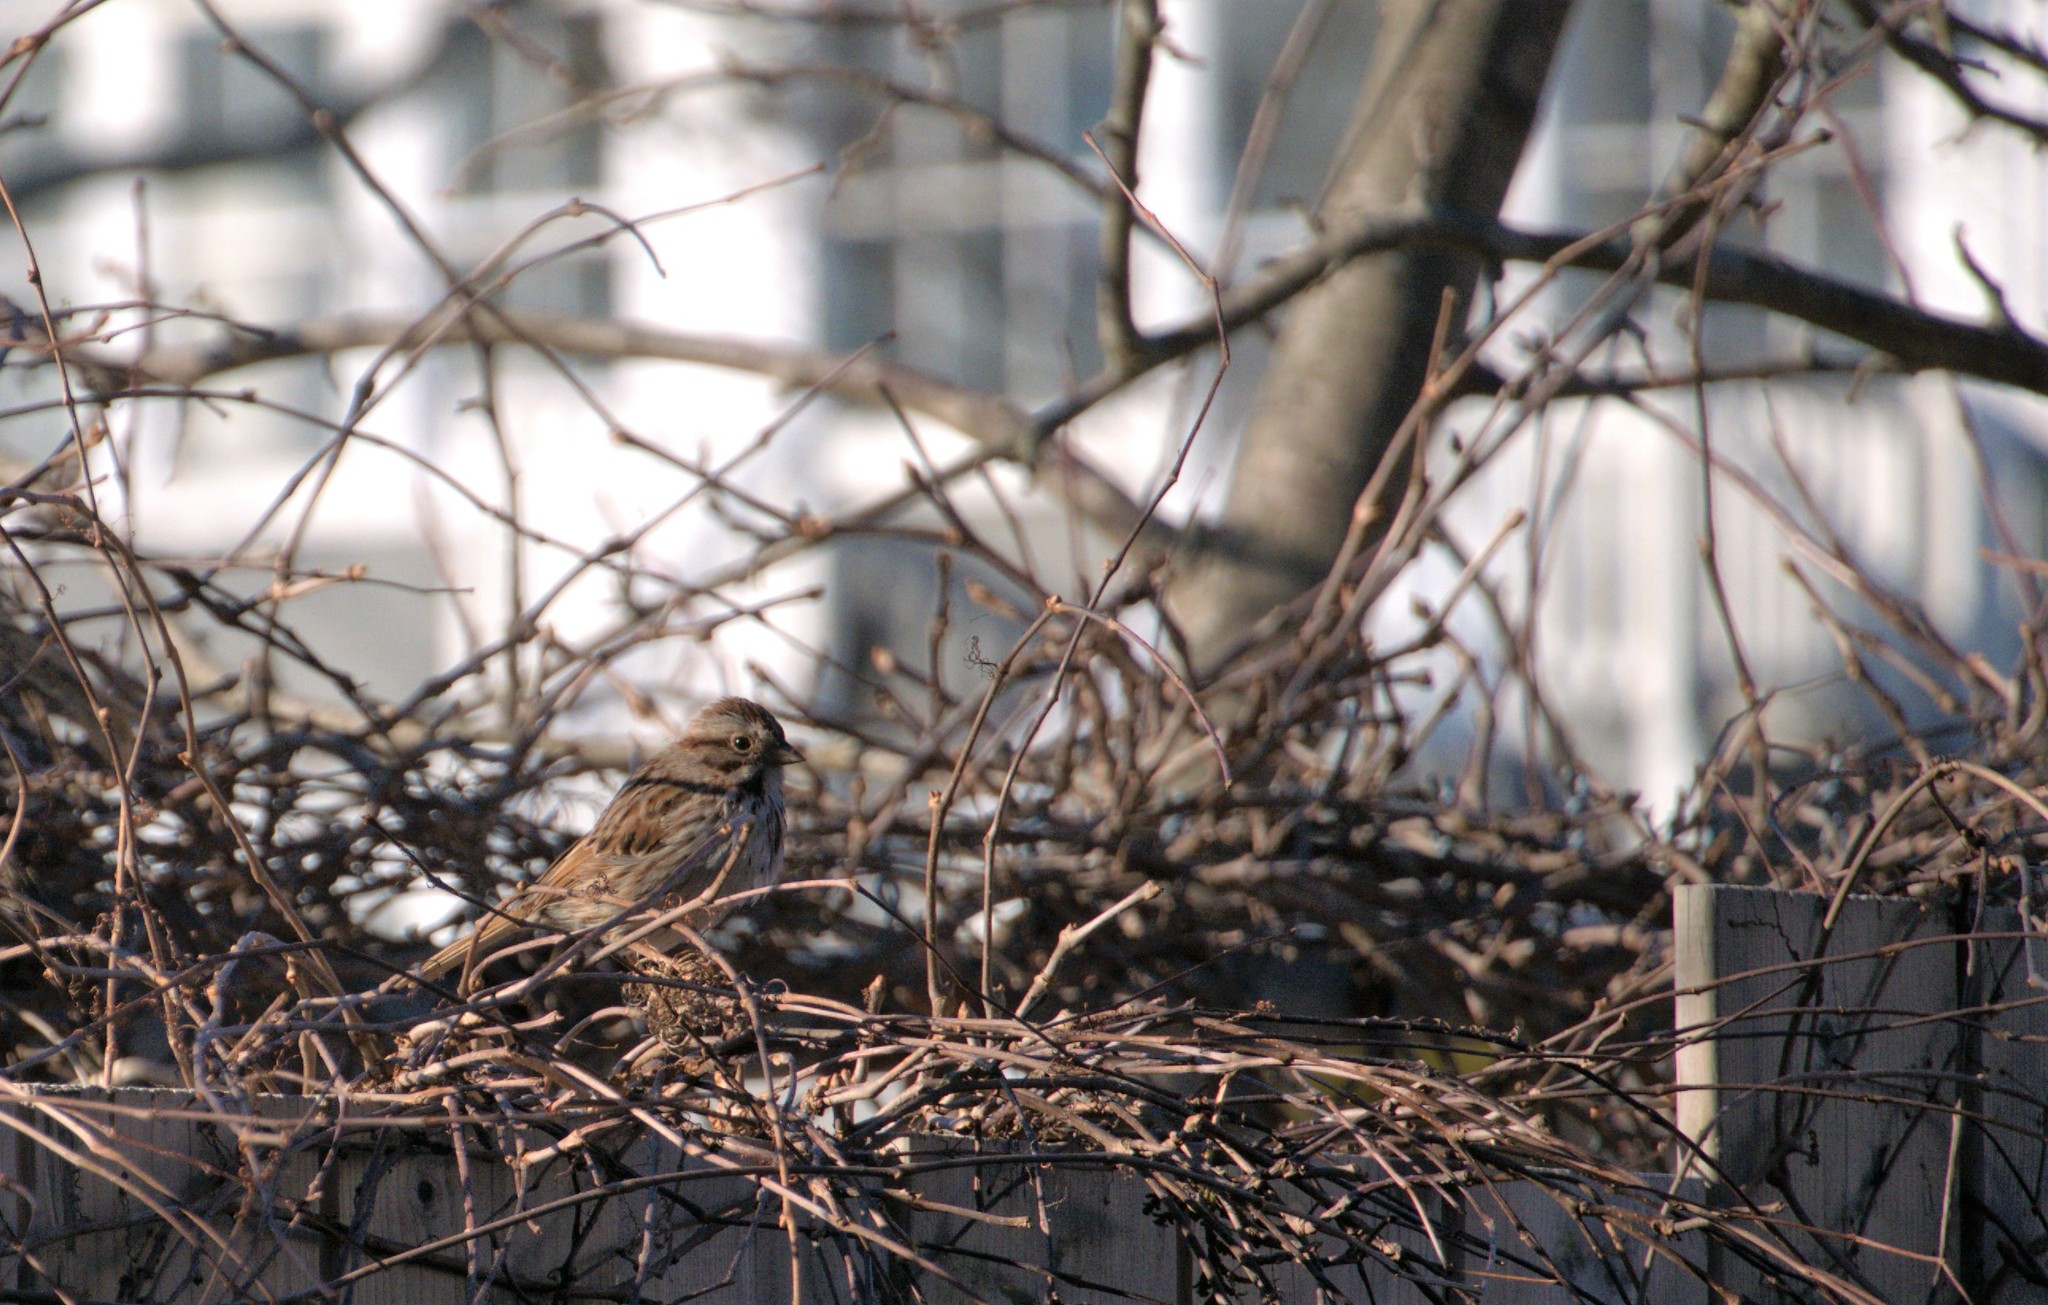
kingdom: Animalia
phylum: Chordata
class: Aves
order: Passeriformes
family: Passerellidae
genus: Melospiza
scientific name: Melospiza melodia
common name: Song sparrow
